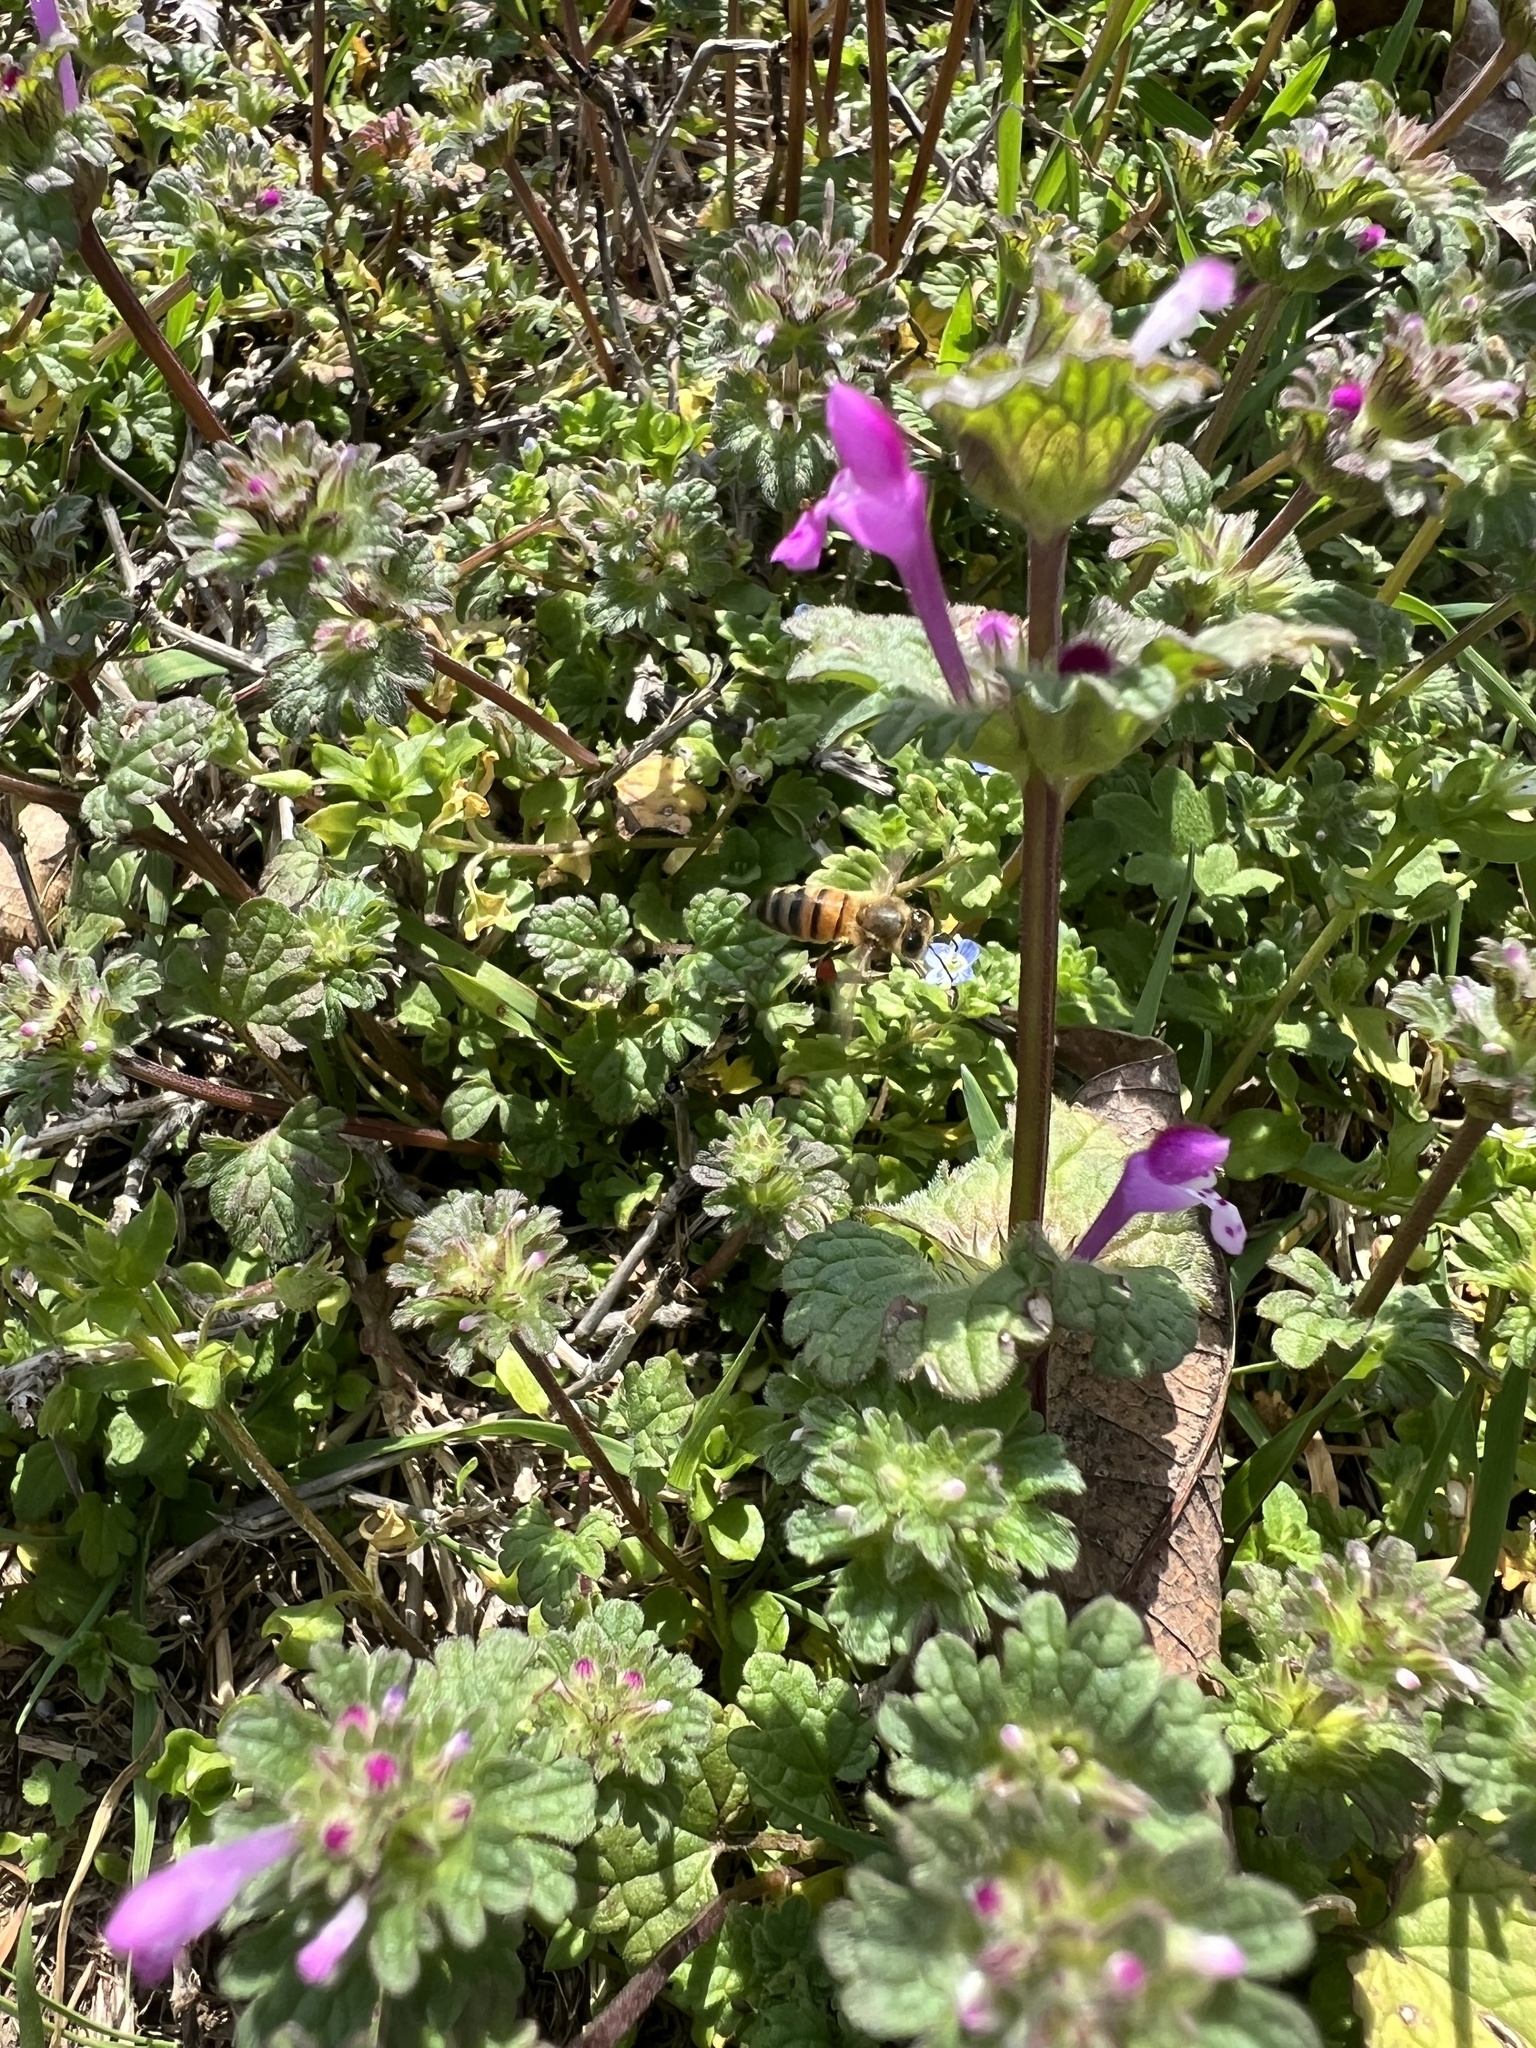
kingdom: Animalia
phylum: Arthropoda
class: Insecta
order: Hymenoptera
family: Apidae
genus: Apis
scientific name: Apis mellifera
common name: Honey bee
